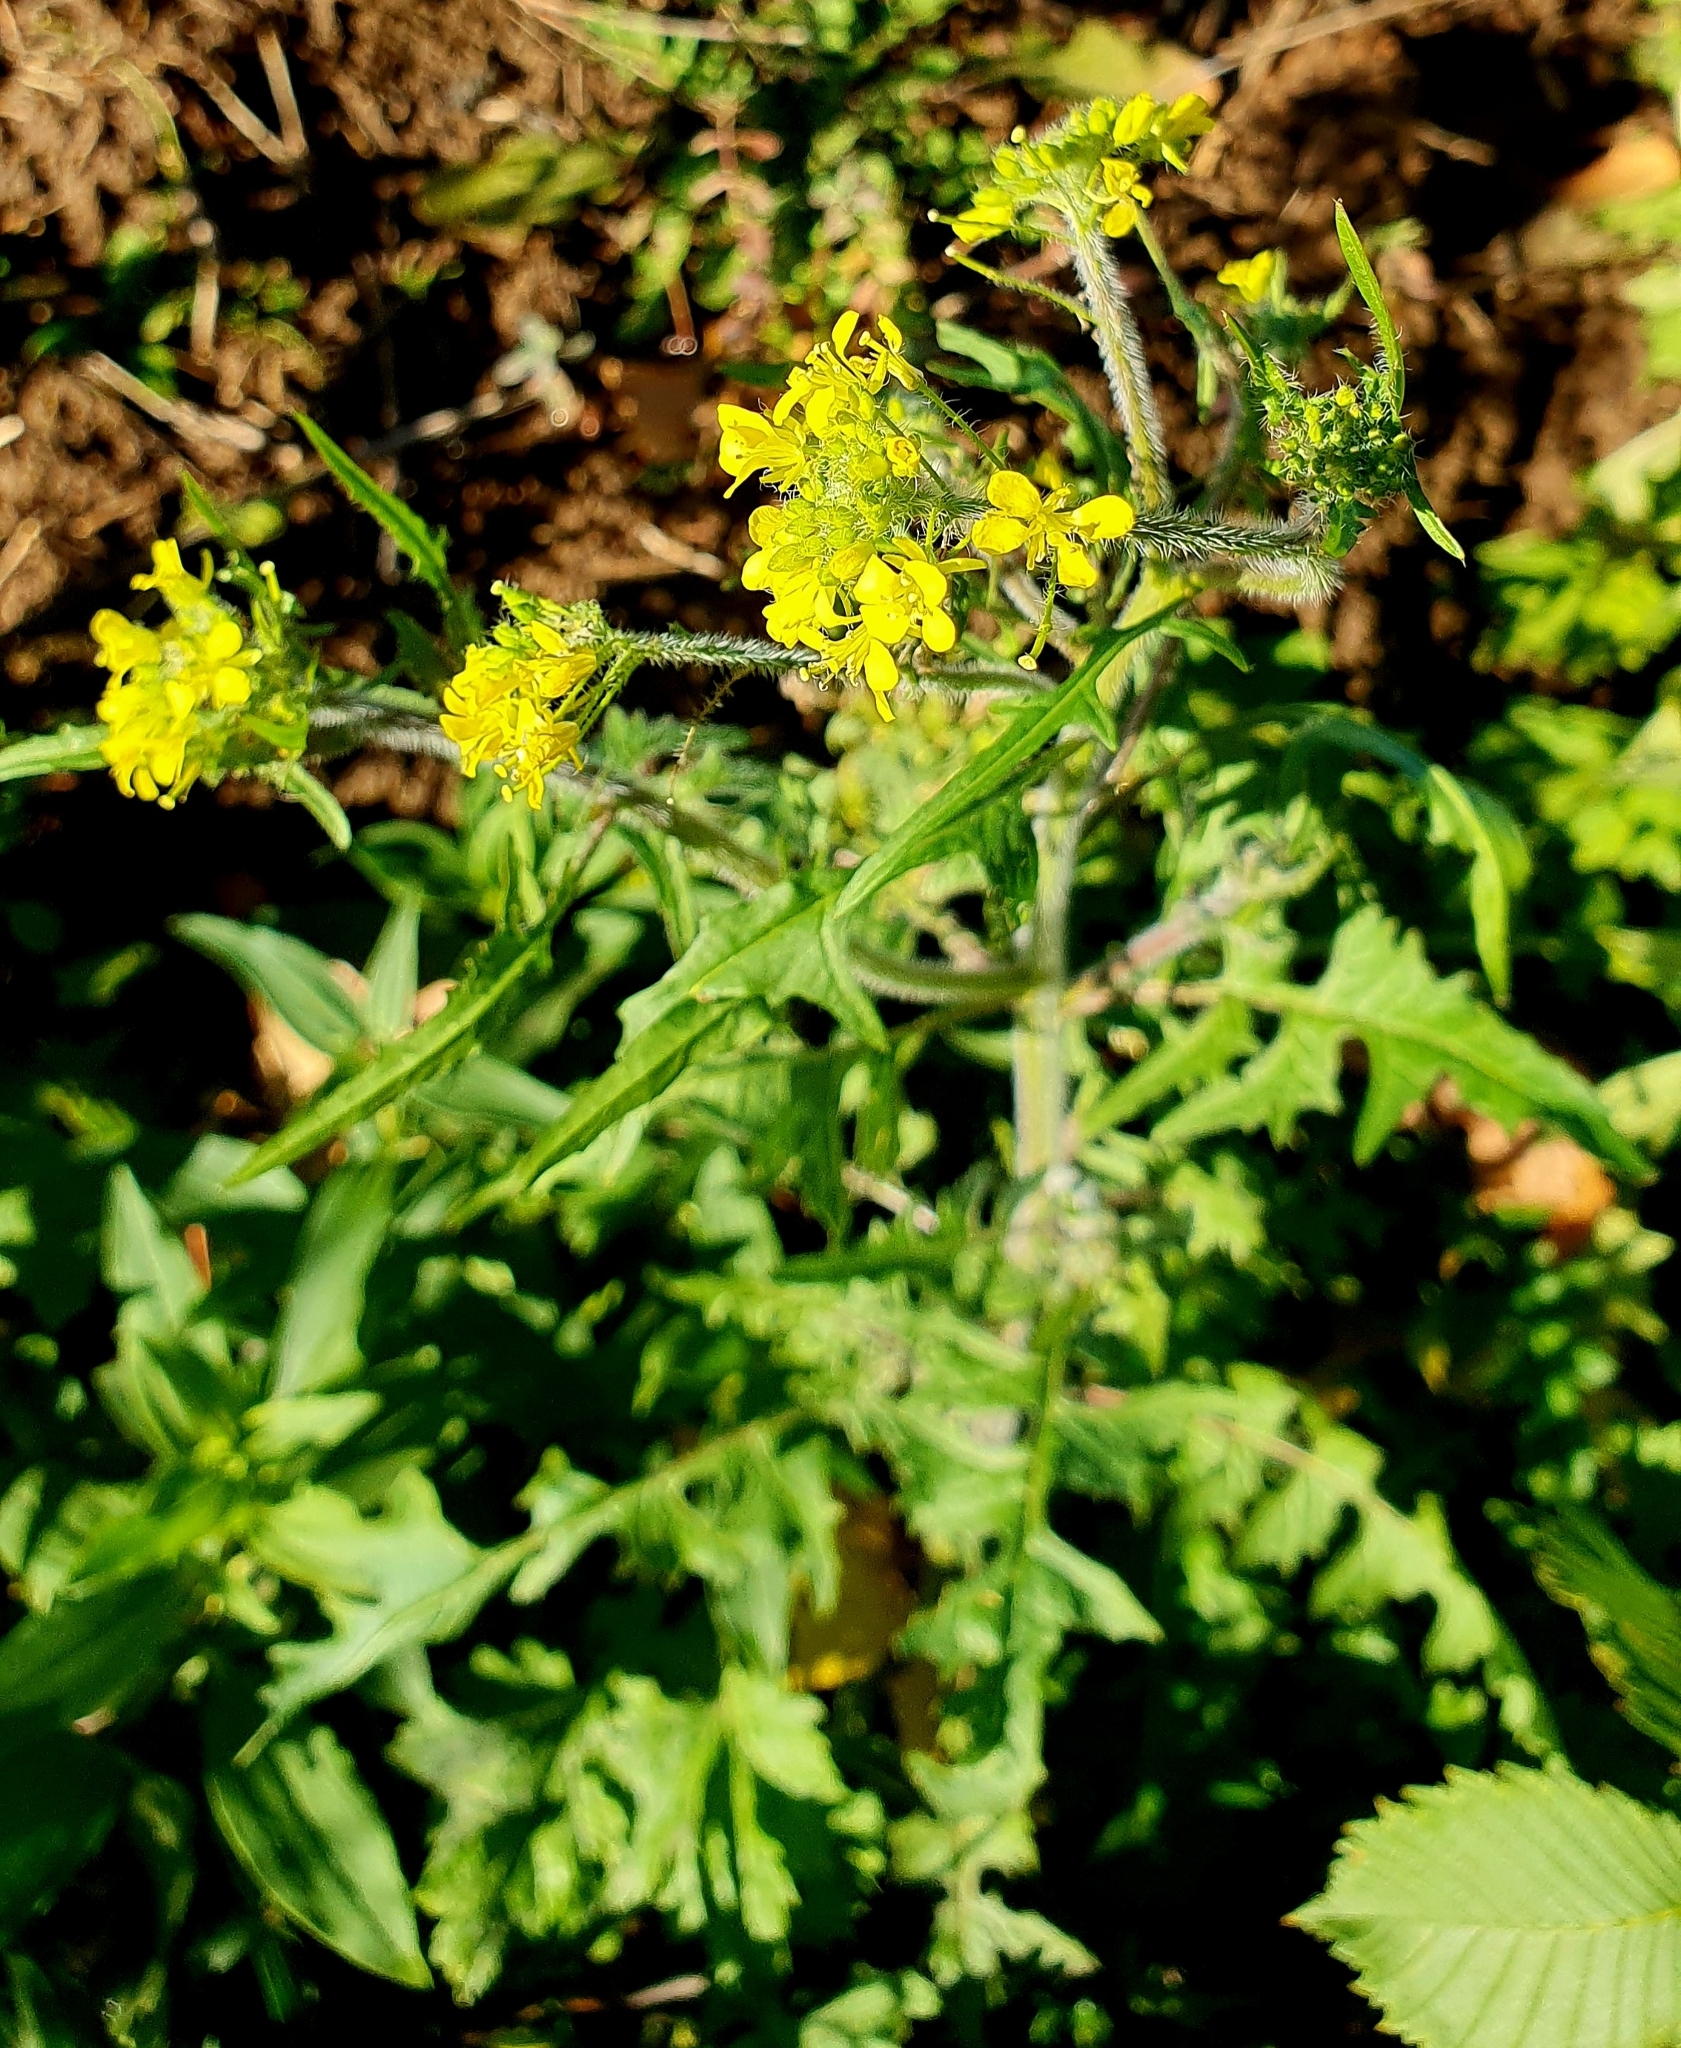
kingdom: Plantae
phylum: Tracheophyta
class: Magnoliopsida
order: Brassicales
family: Brassicaceae
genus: Sisymbrium
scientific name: Sisymbrium loeselii
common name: False london-rocket
